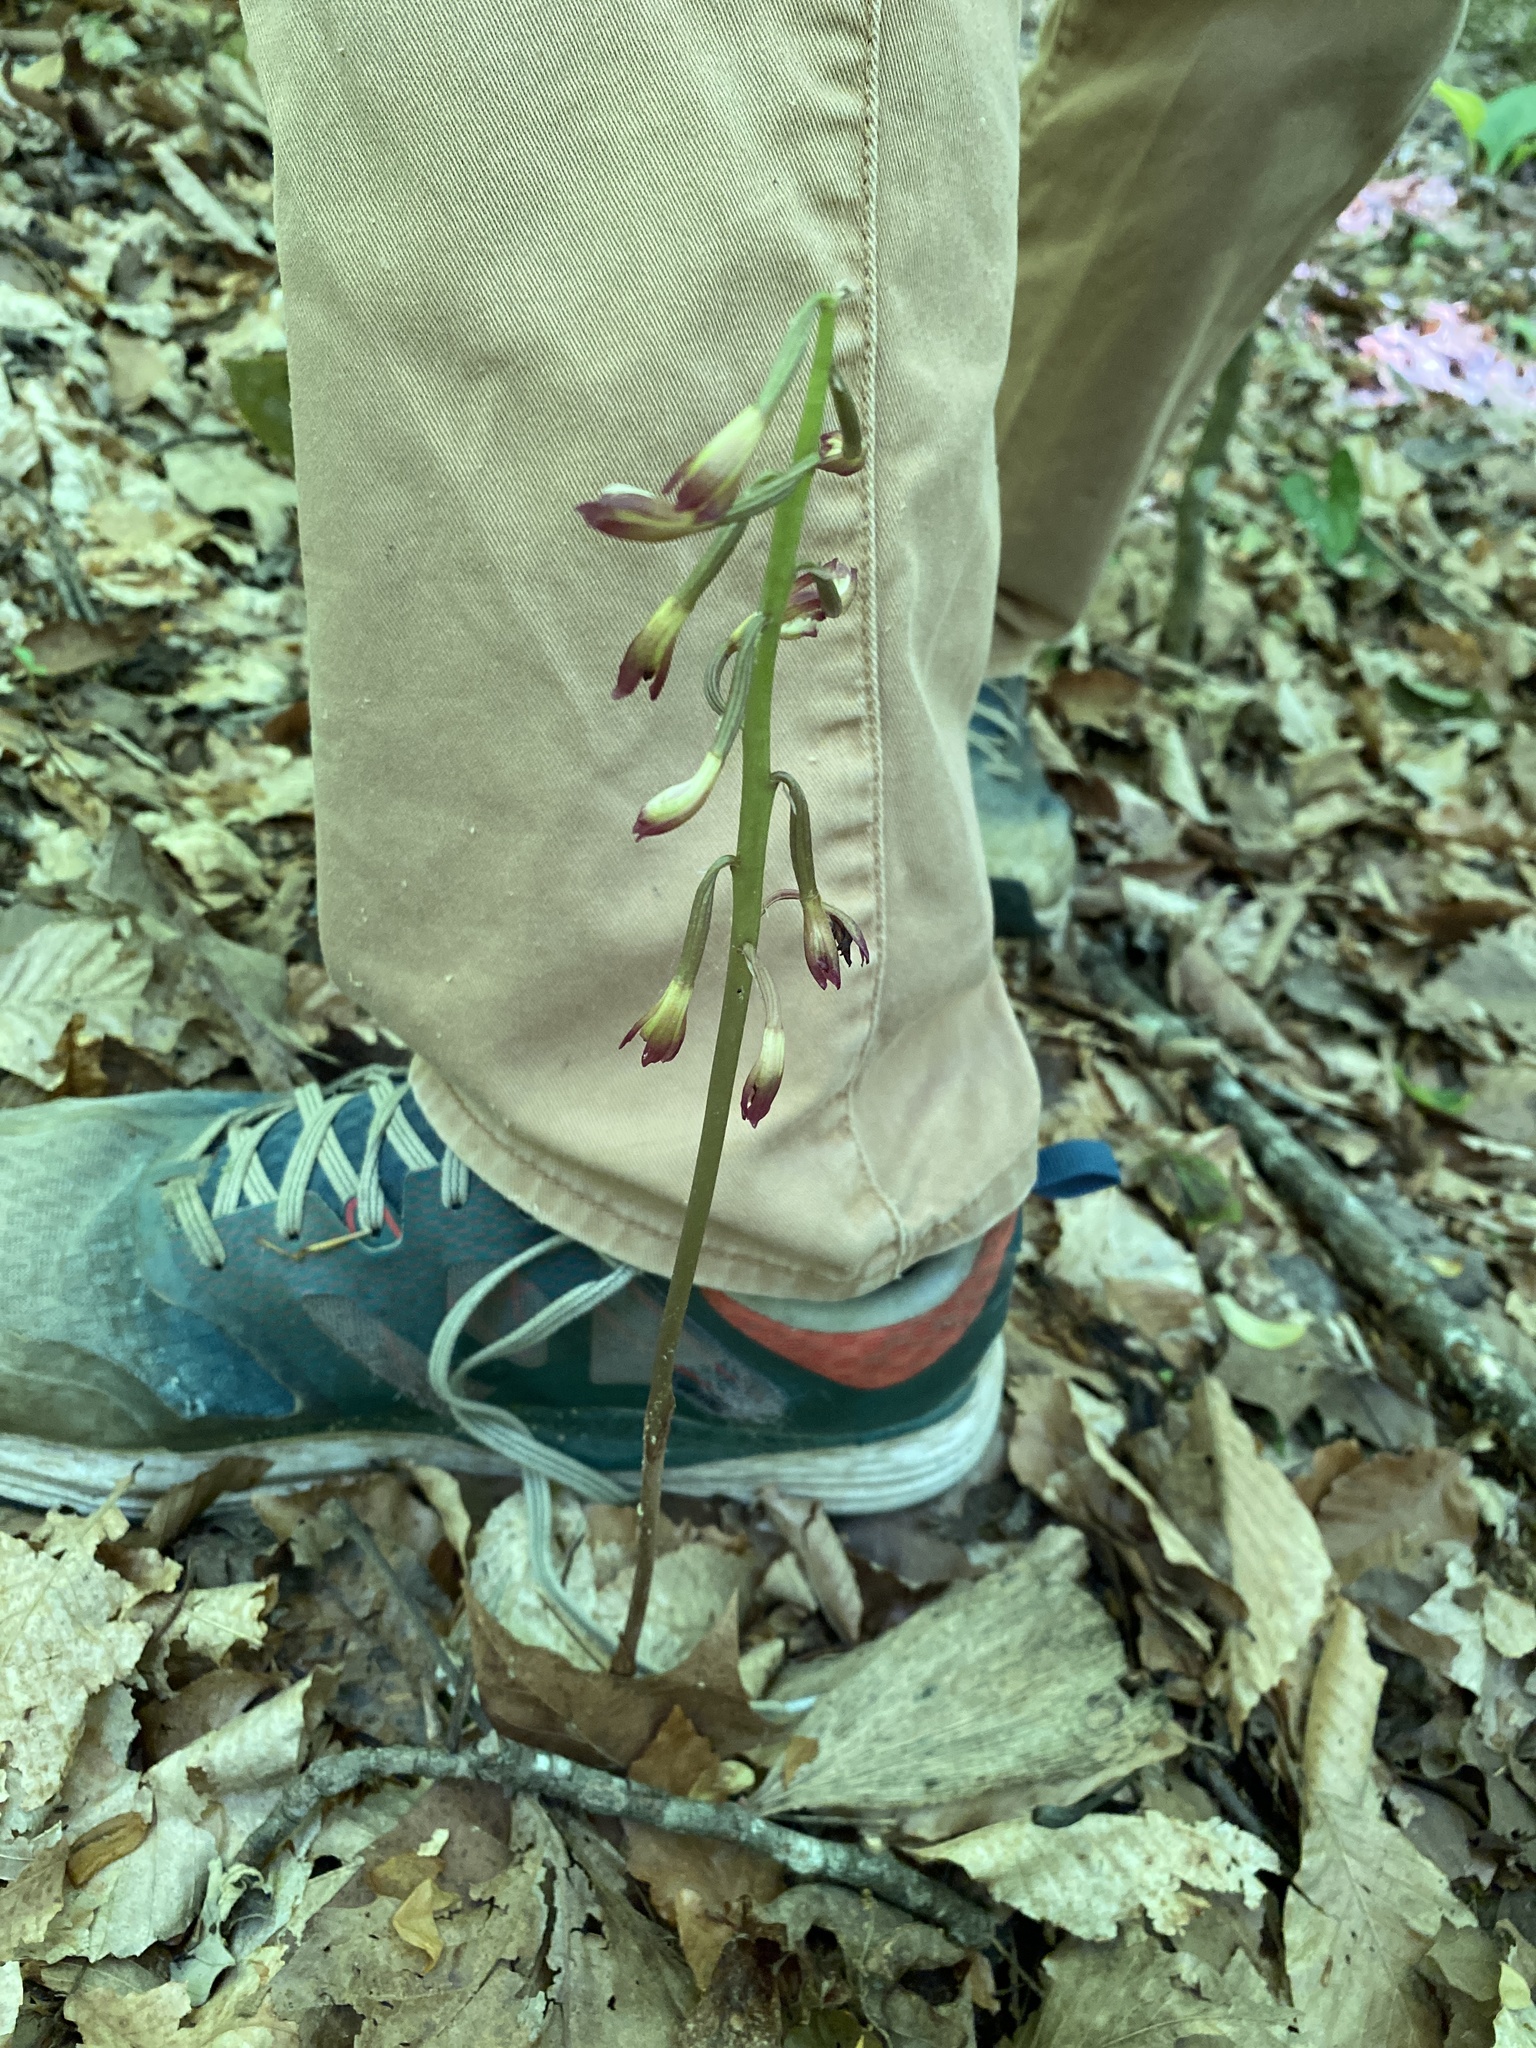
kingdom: Plantae
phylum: Tracheophyta
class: Liliopsida
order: Asparagales
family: Orchidaceae
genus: Aplectrum
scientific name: Aplectrum hyemale
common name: Adam-and-eve
